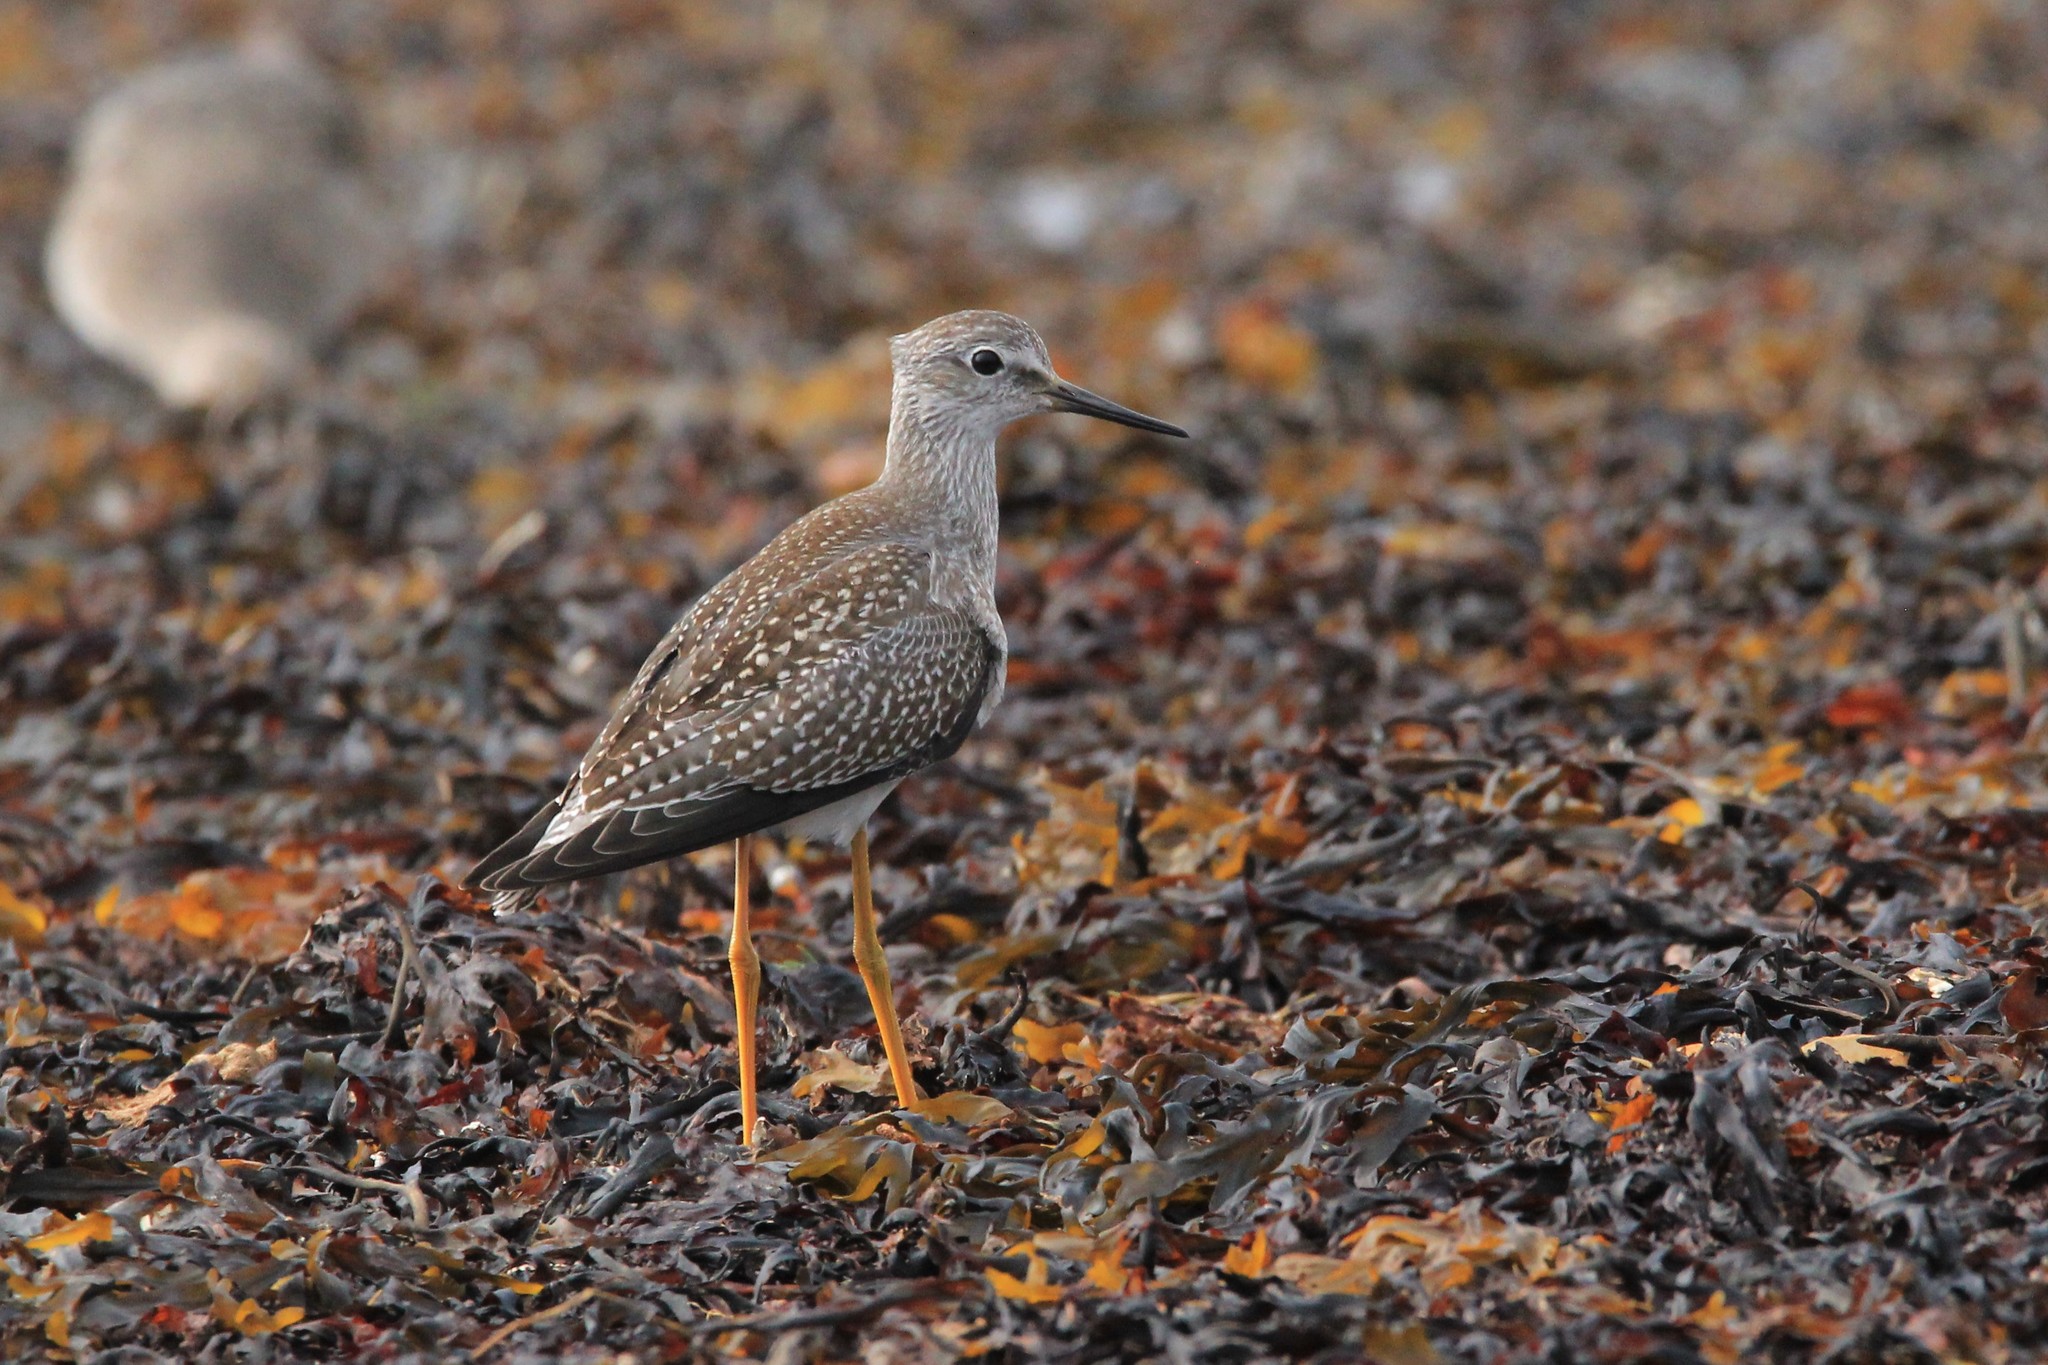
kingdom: Animalia
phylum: Chordata
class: Aves
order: Charadriiformes
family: Scolopacidae
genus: Tringa
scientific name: Tringa flavipes
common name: Lesser yellowlegs
